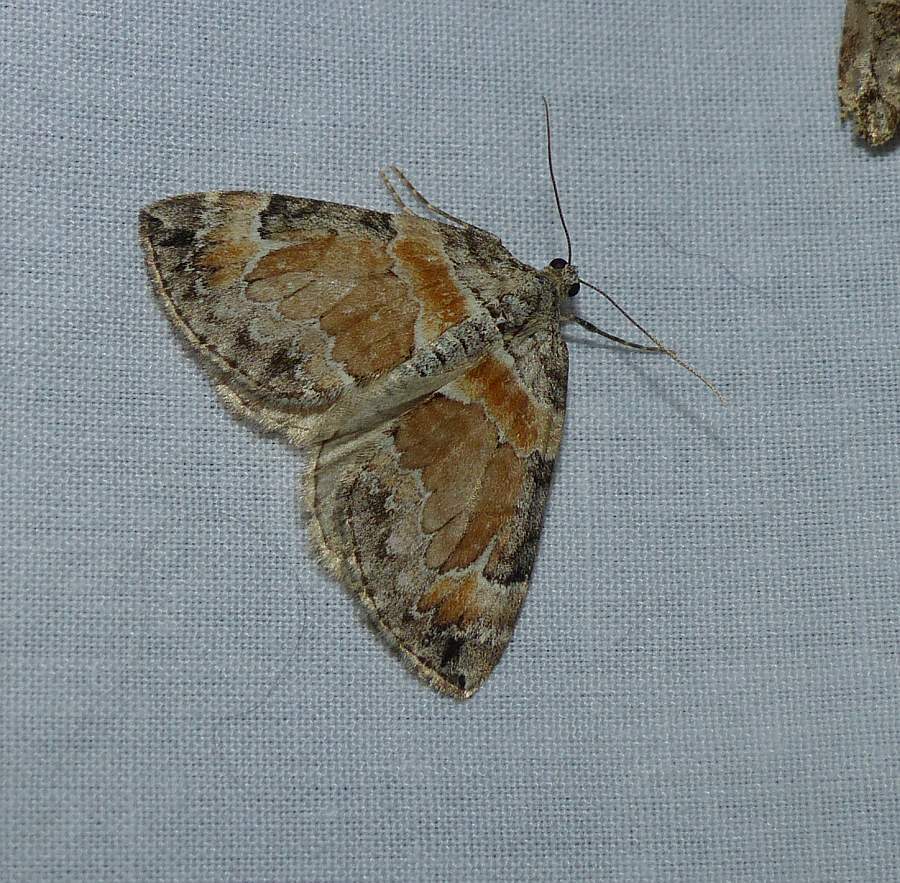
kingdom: Animalia
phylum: Arthropoda
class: Insecta
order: Lepidoptera
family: Geometridae
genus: Dysstroma
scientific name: Dysstroma hersiliata
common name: Orange-barred carpet
